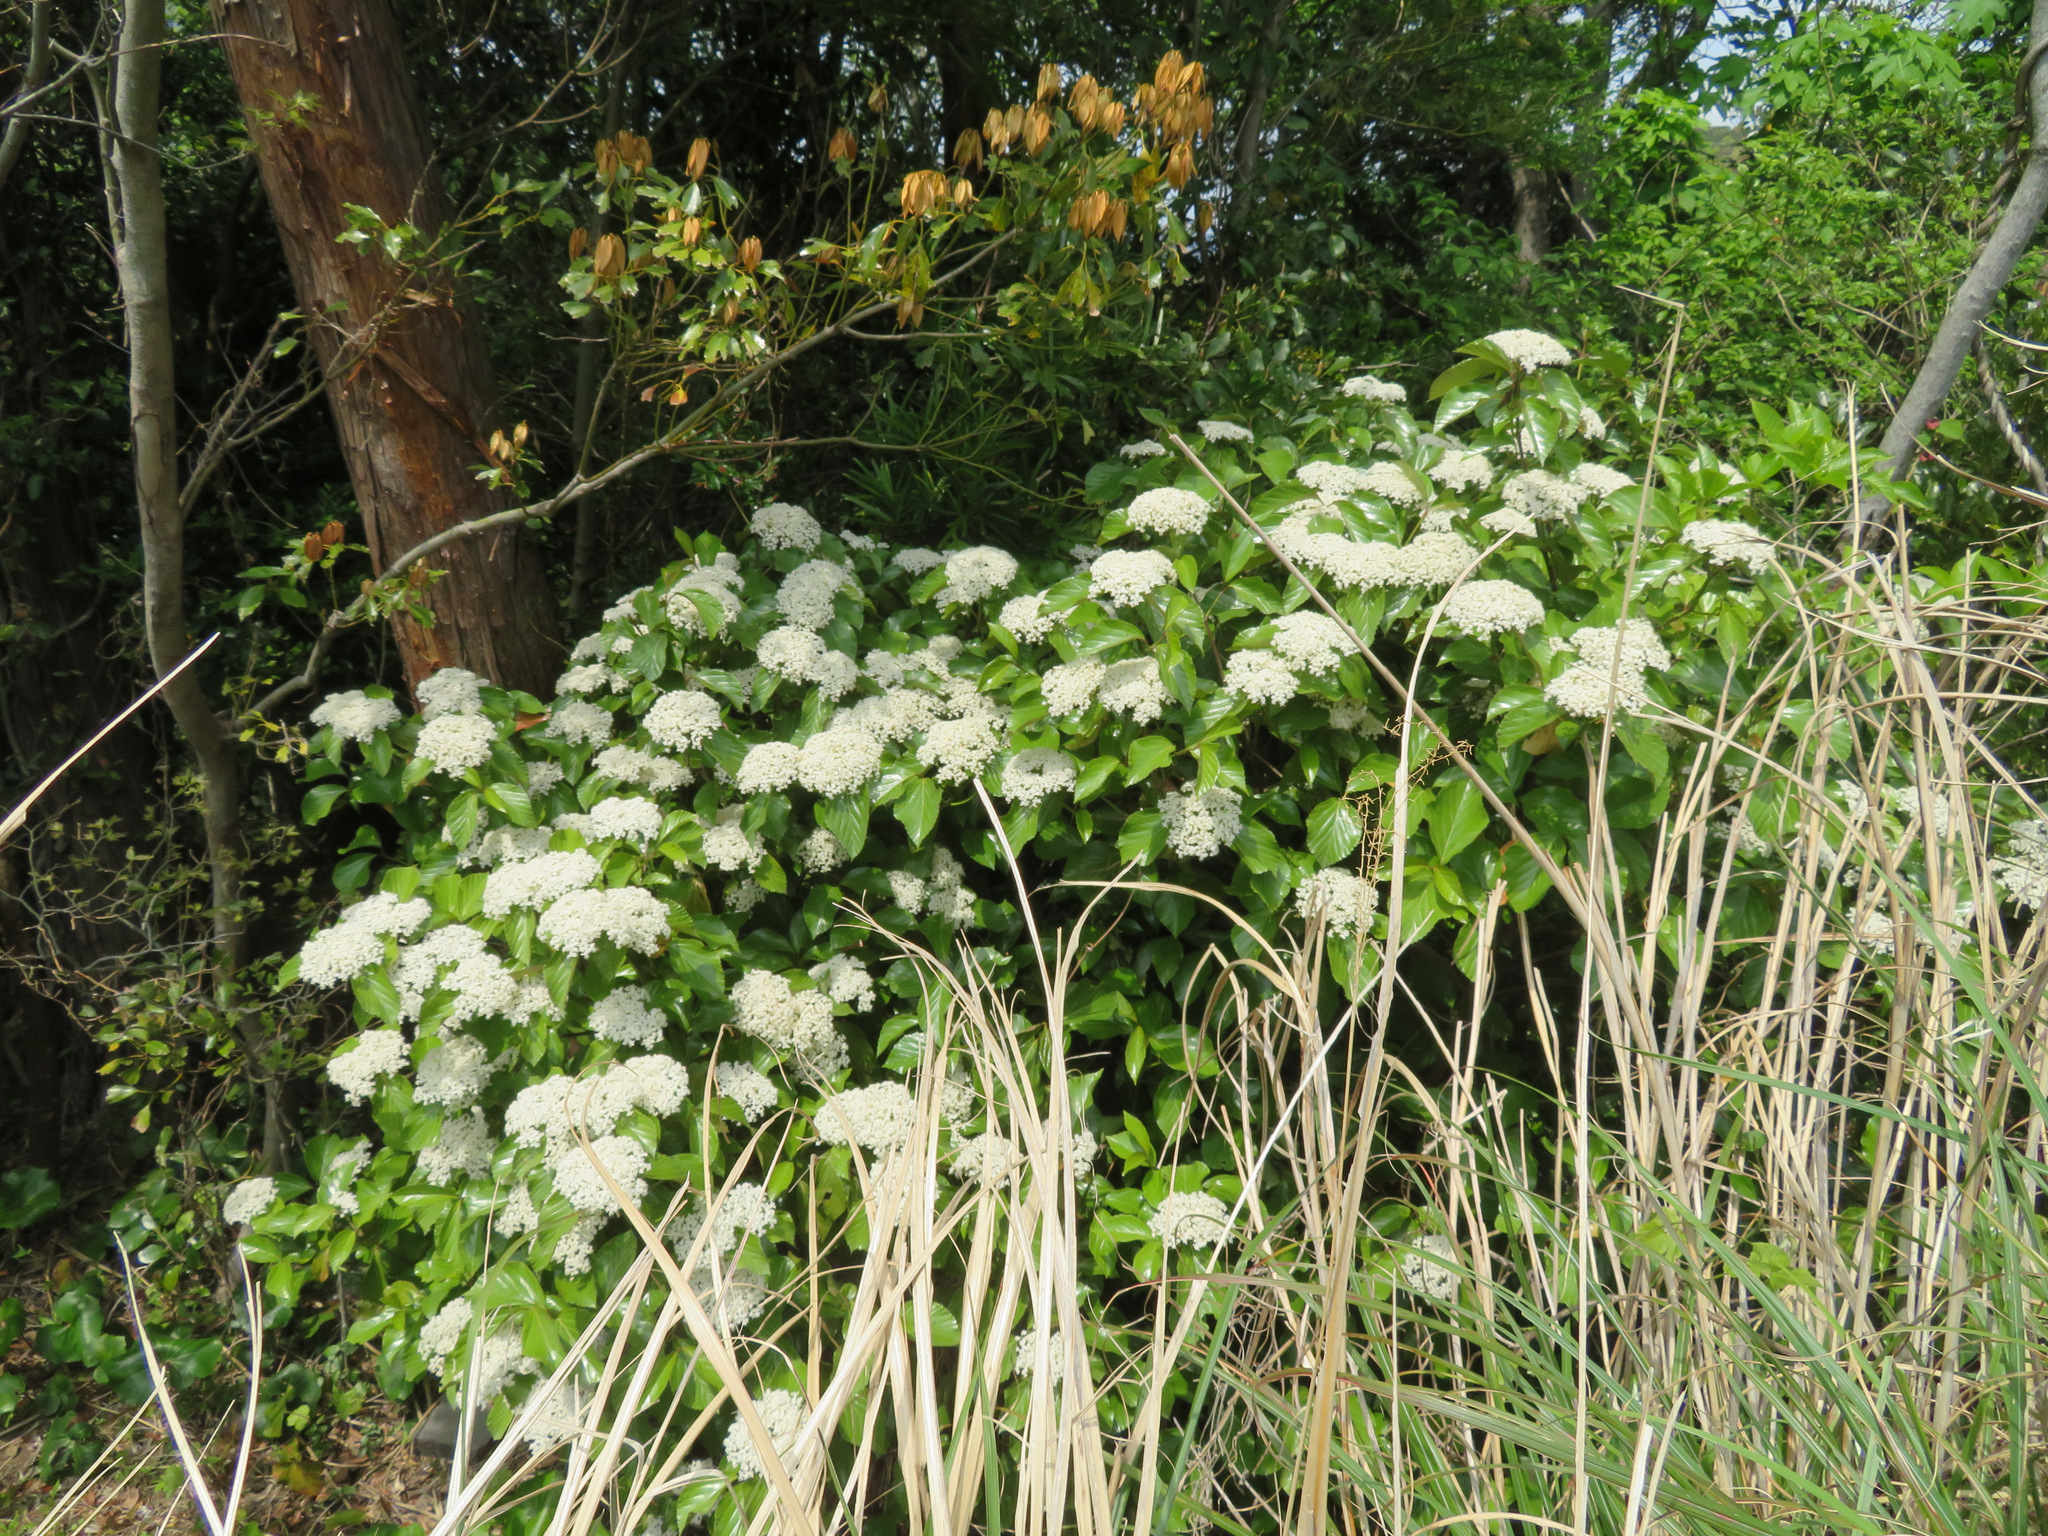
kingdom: Plantae
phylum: Tracheophyta
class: Magnoliopsida
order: Dipsacales
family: Viburnaceae
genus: Viburnum
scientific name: Viburnum japonicum
